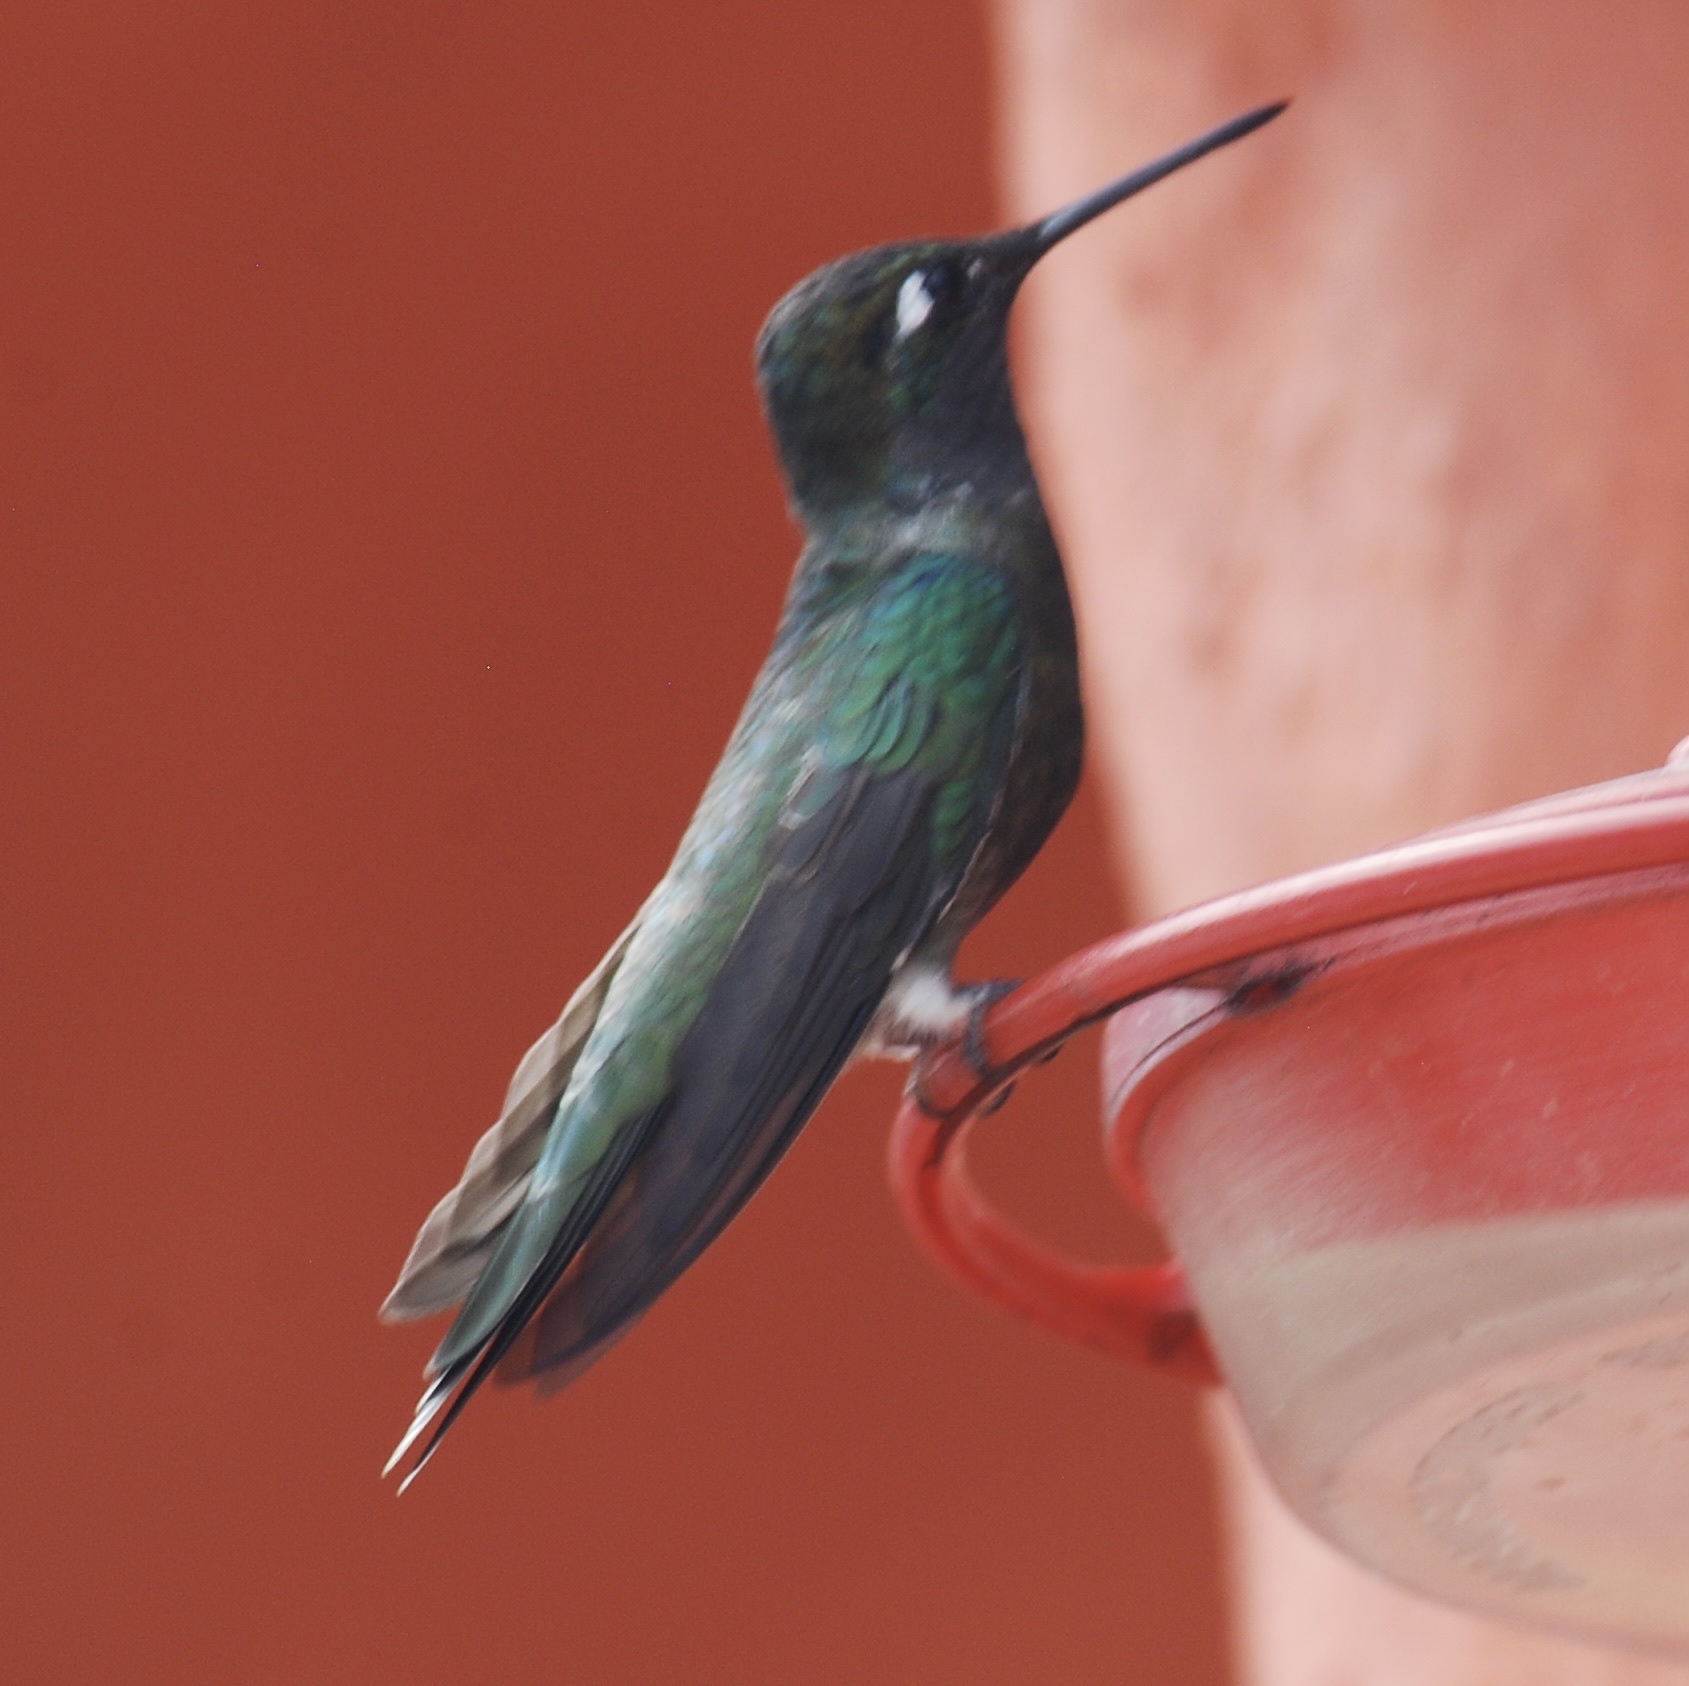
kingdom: Animalia
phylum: Chordata
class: Aves
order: Apodiformes
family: Trochilidae
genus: Eugenes
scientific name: Eugenes fulgens
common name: Magnificent hummingbird
